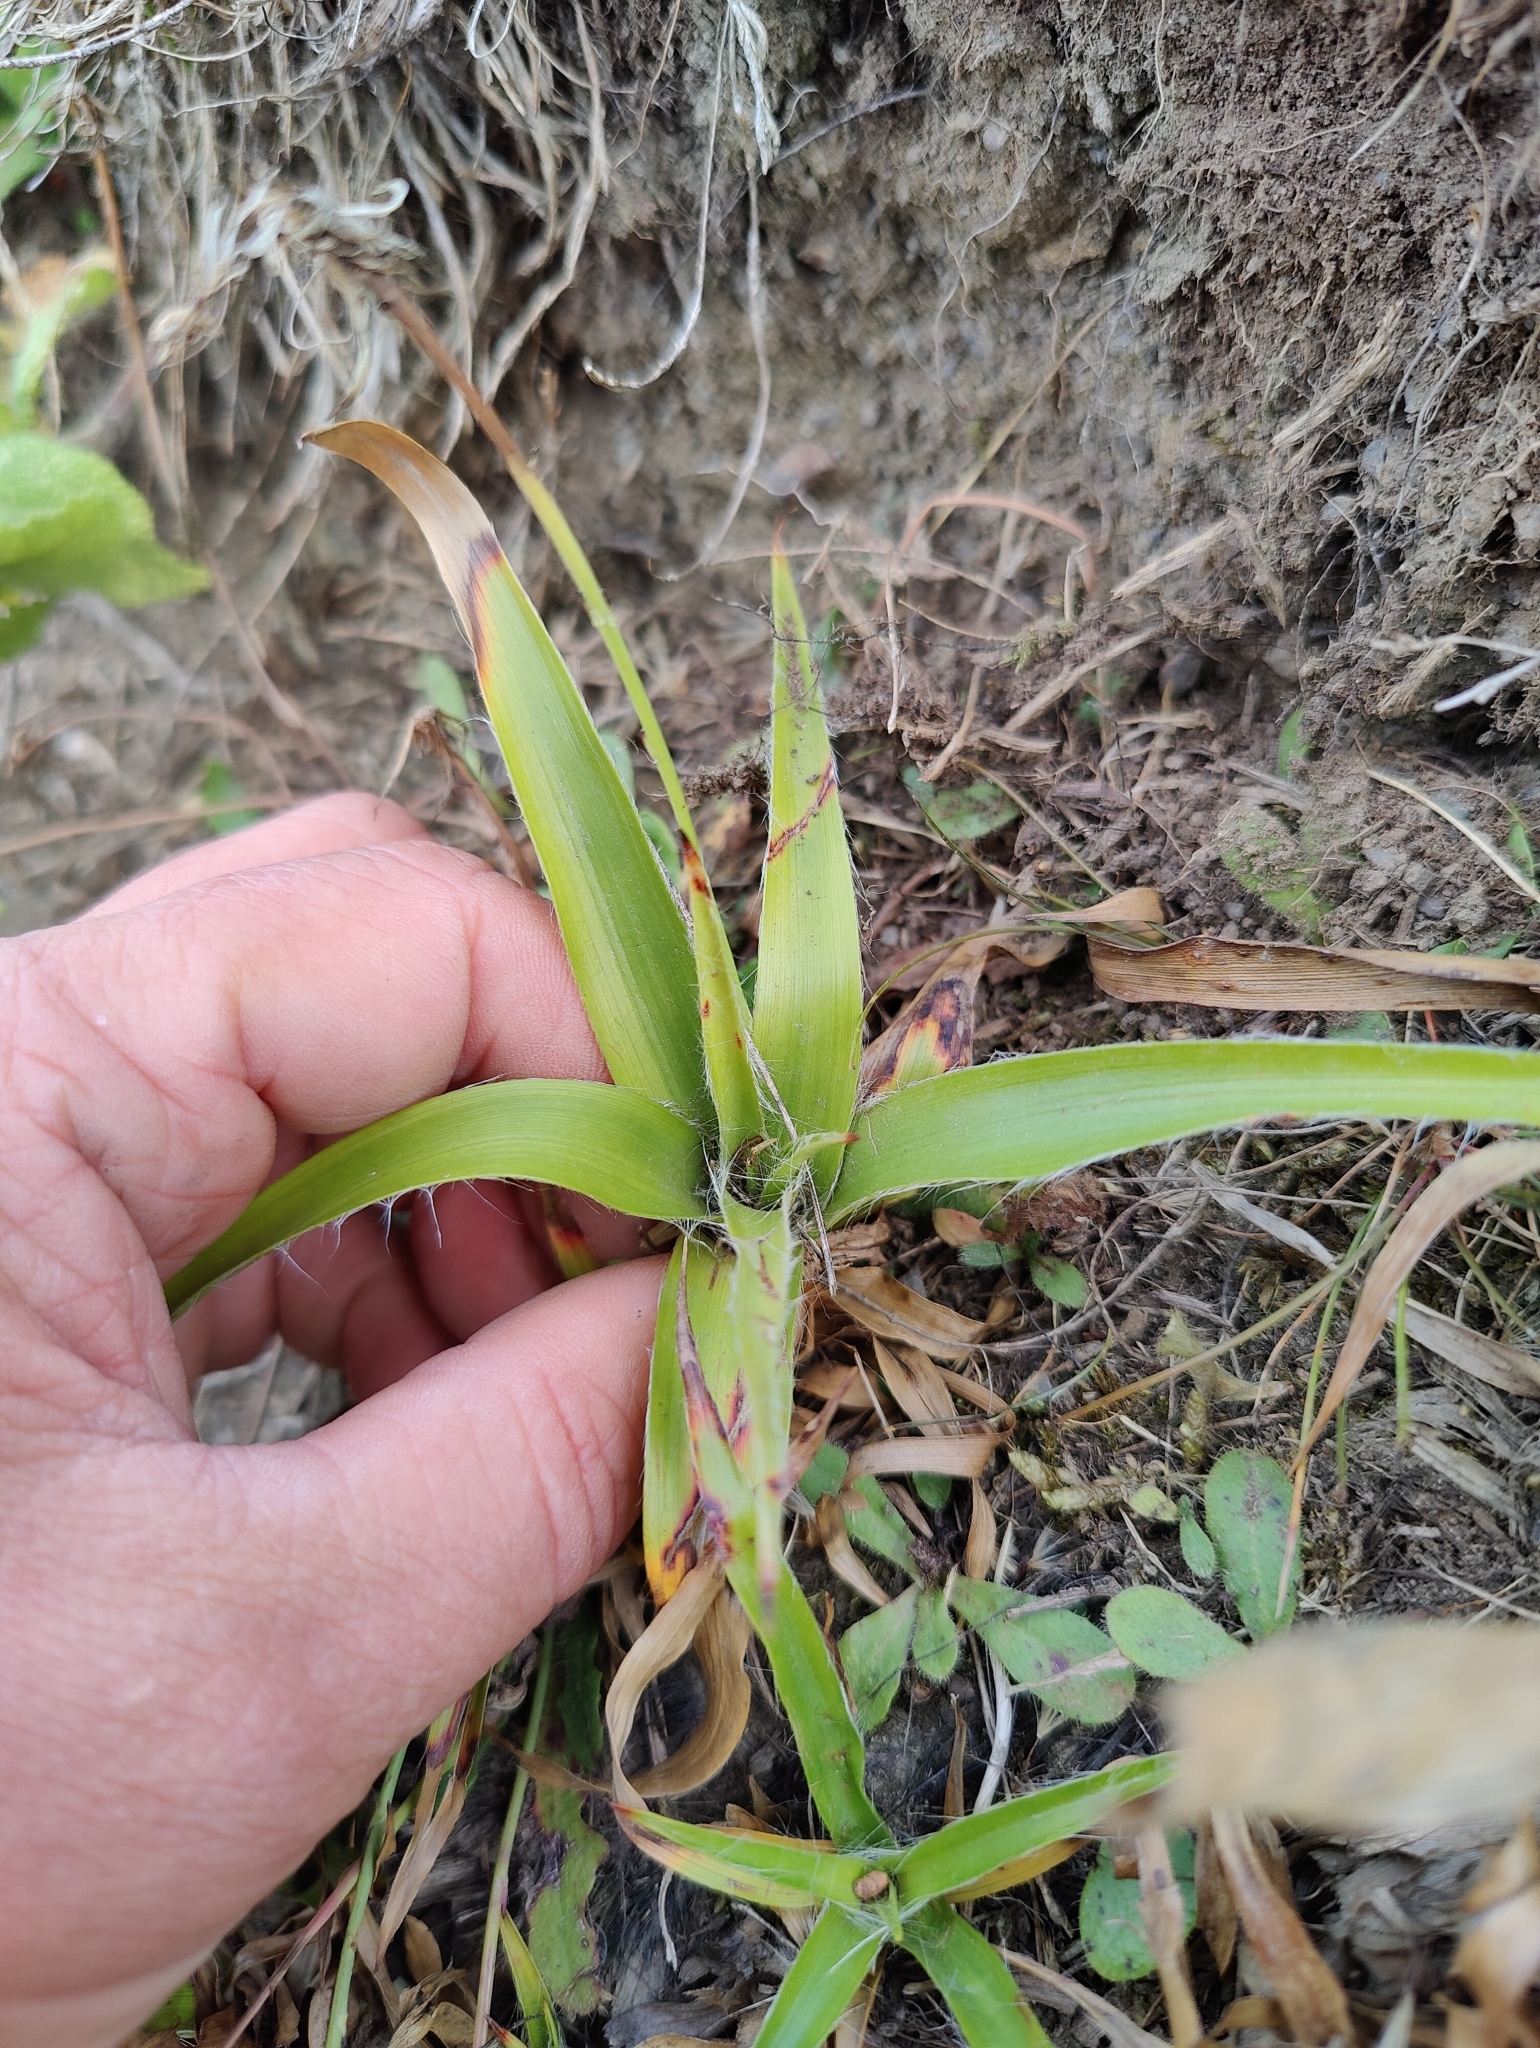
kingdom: Plantae
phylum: Tracheophyta
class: Liliopsida
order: Poales
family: Juncaceae
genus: Luzula
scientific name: Luzula sylvatica
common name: Great wood-rush
